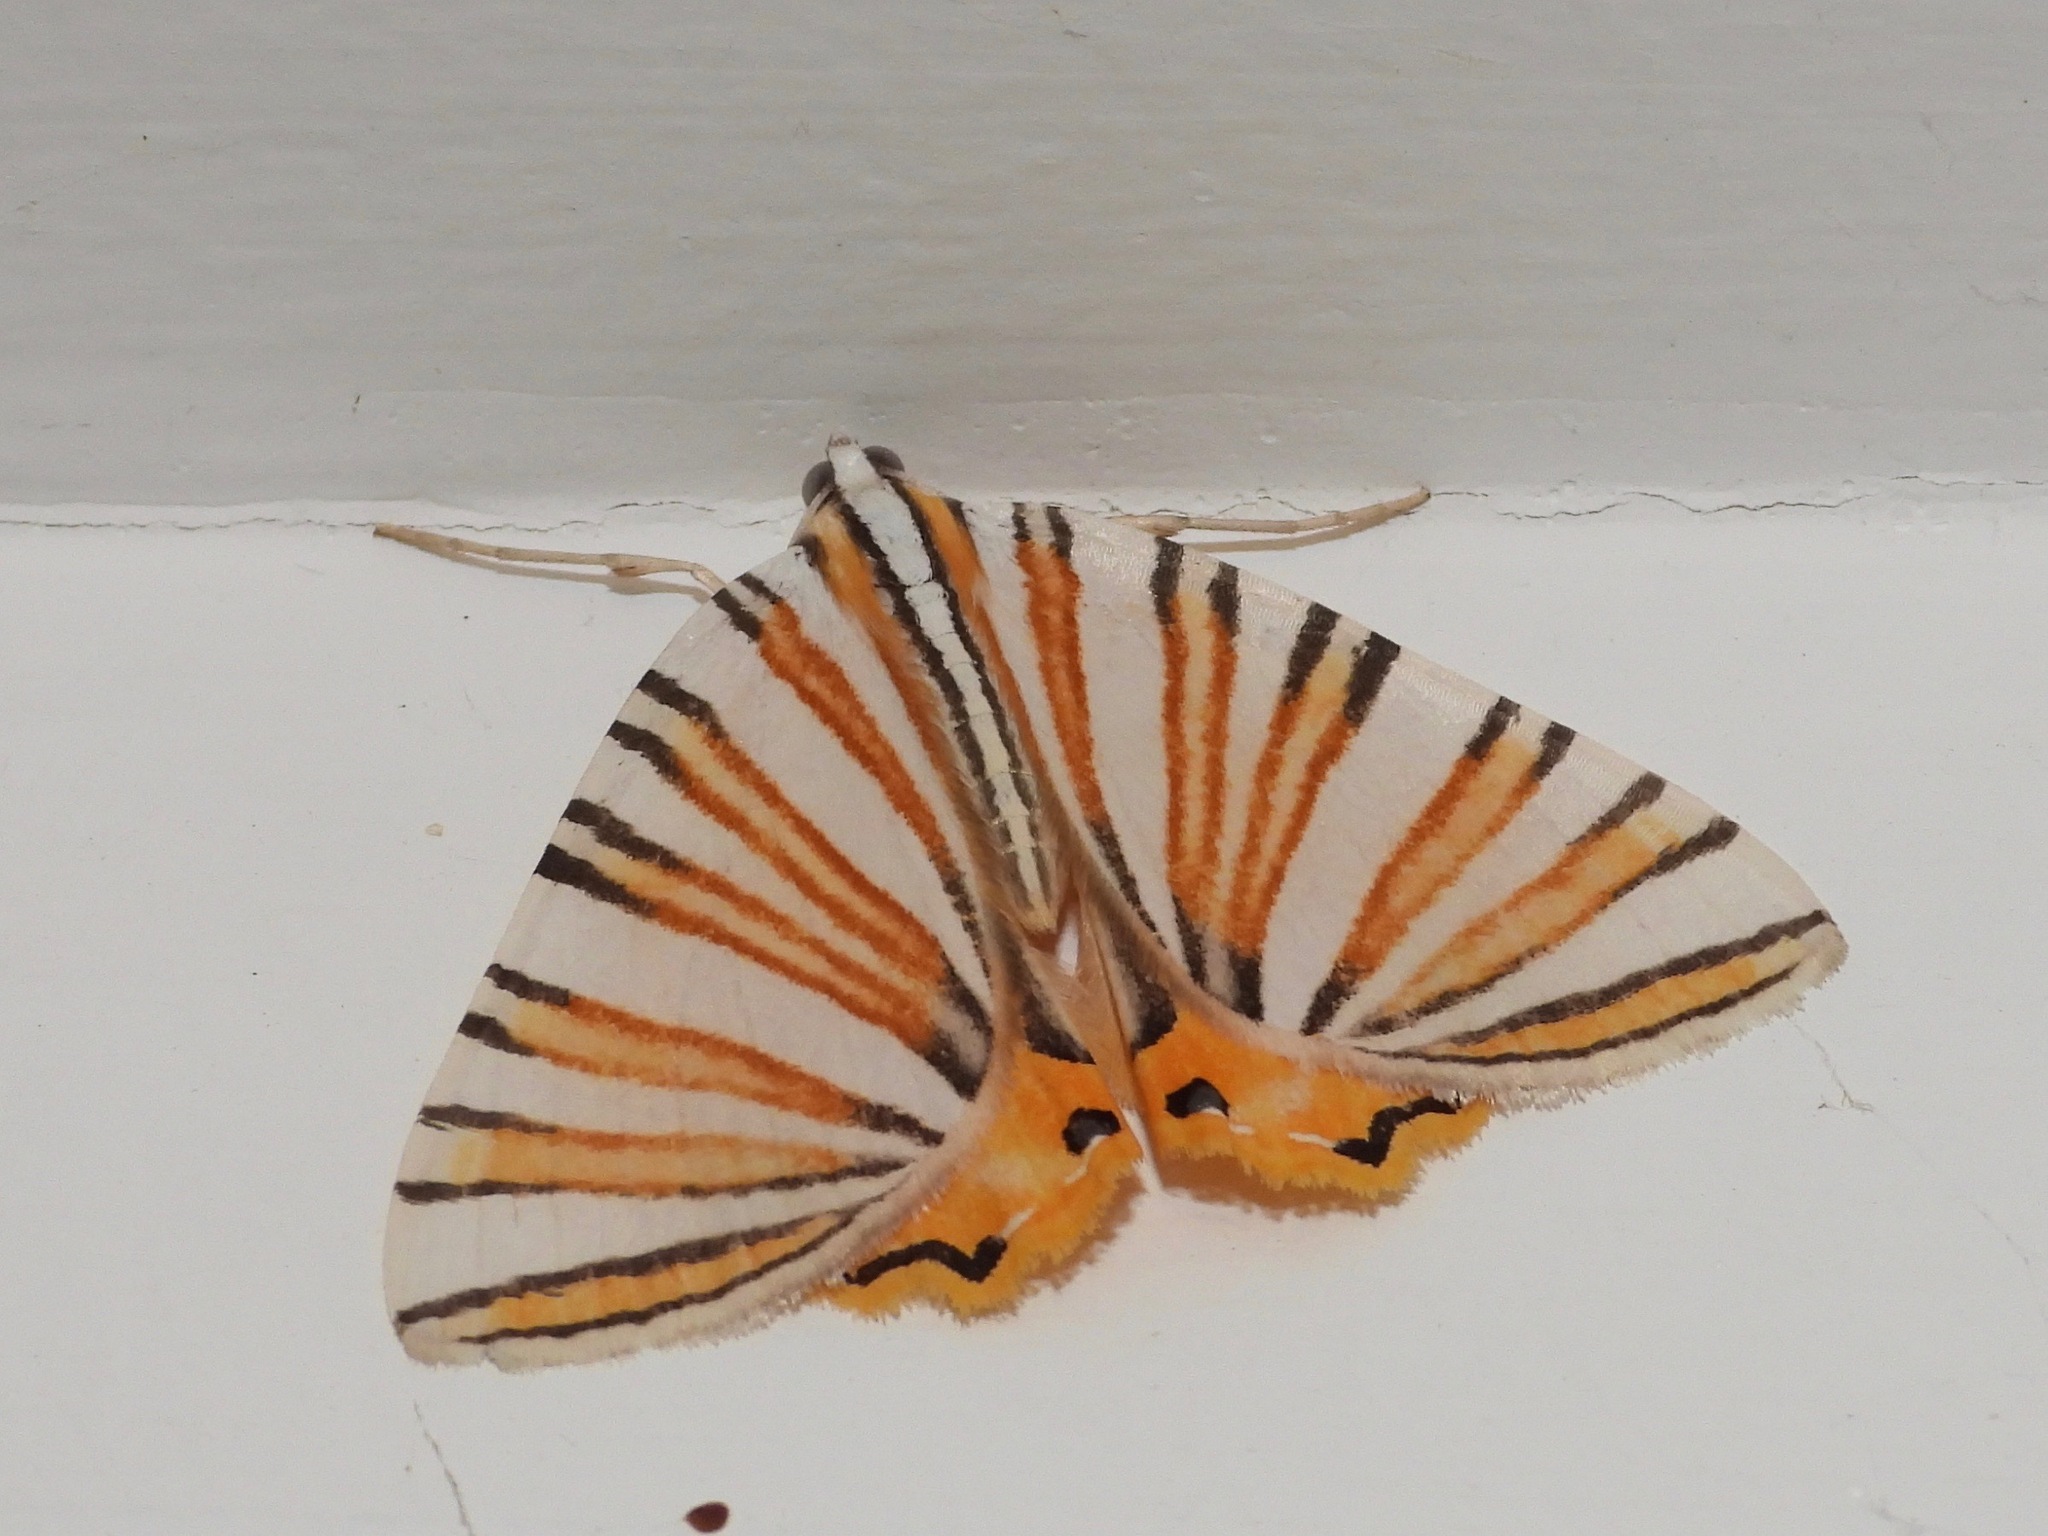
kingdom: Animalia
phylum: Arthropoda
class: Insecta
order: Lepidoptera
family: Geometridae
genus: Pityeja
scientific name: Pityeja histrionaria
